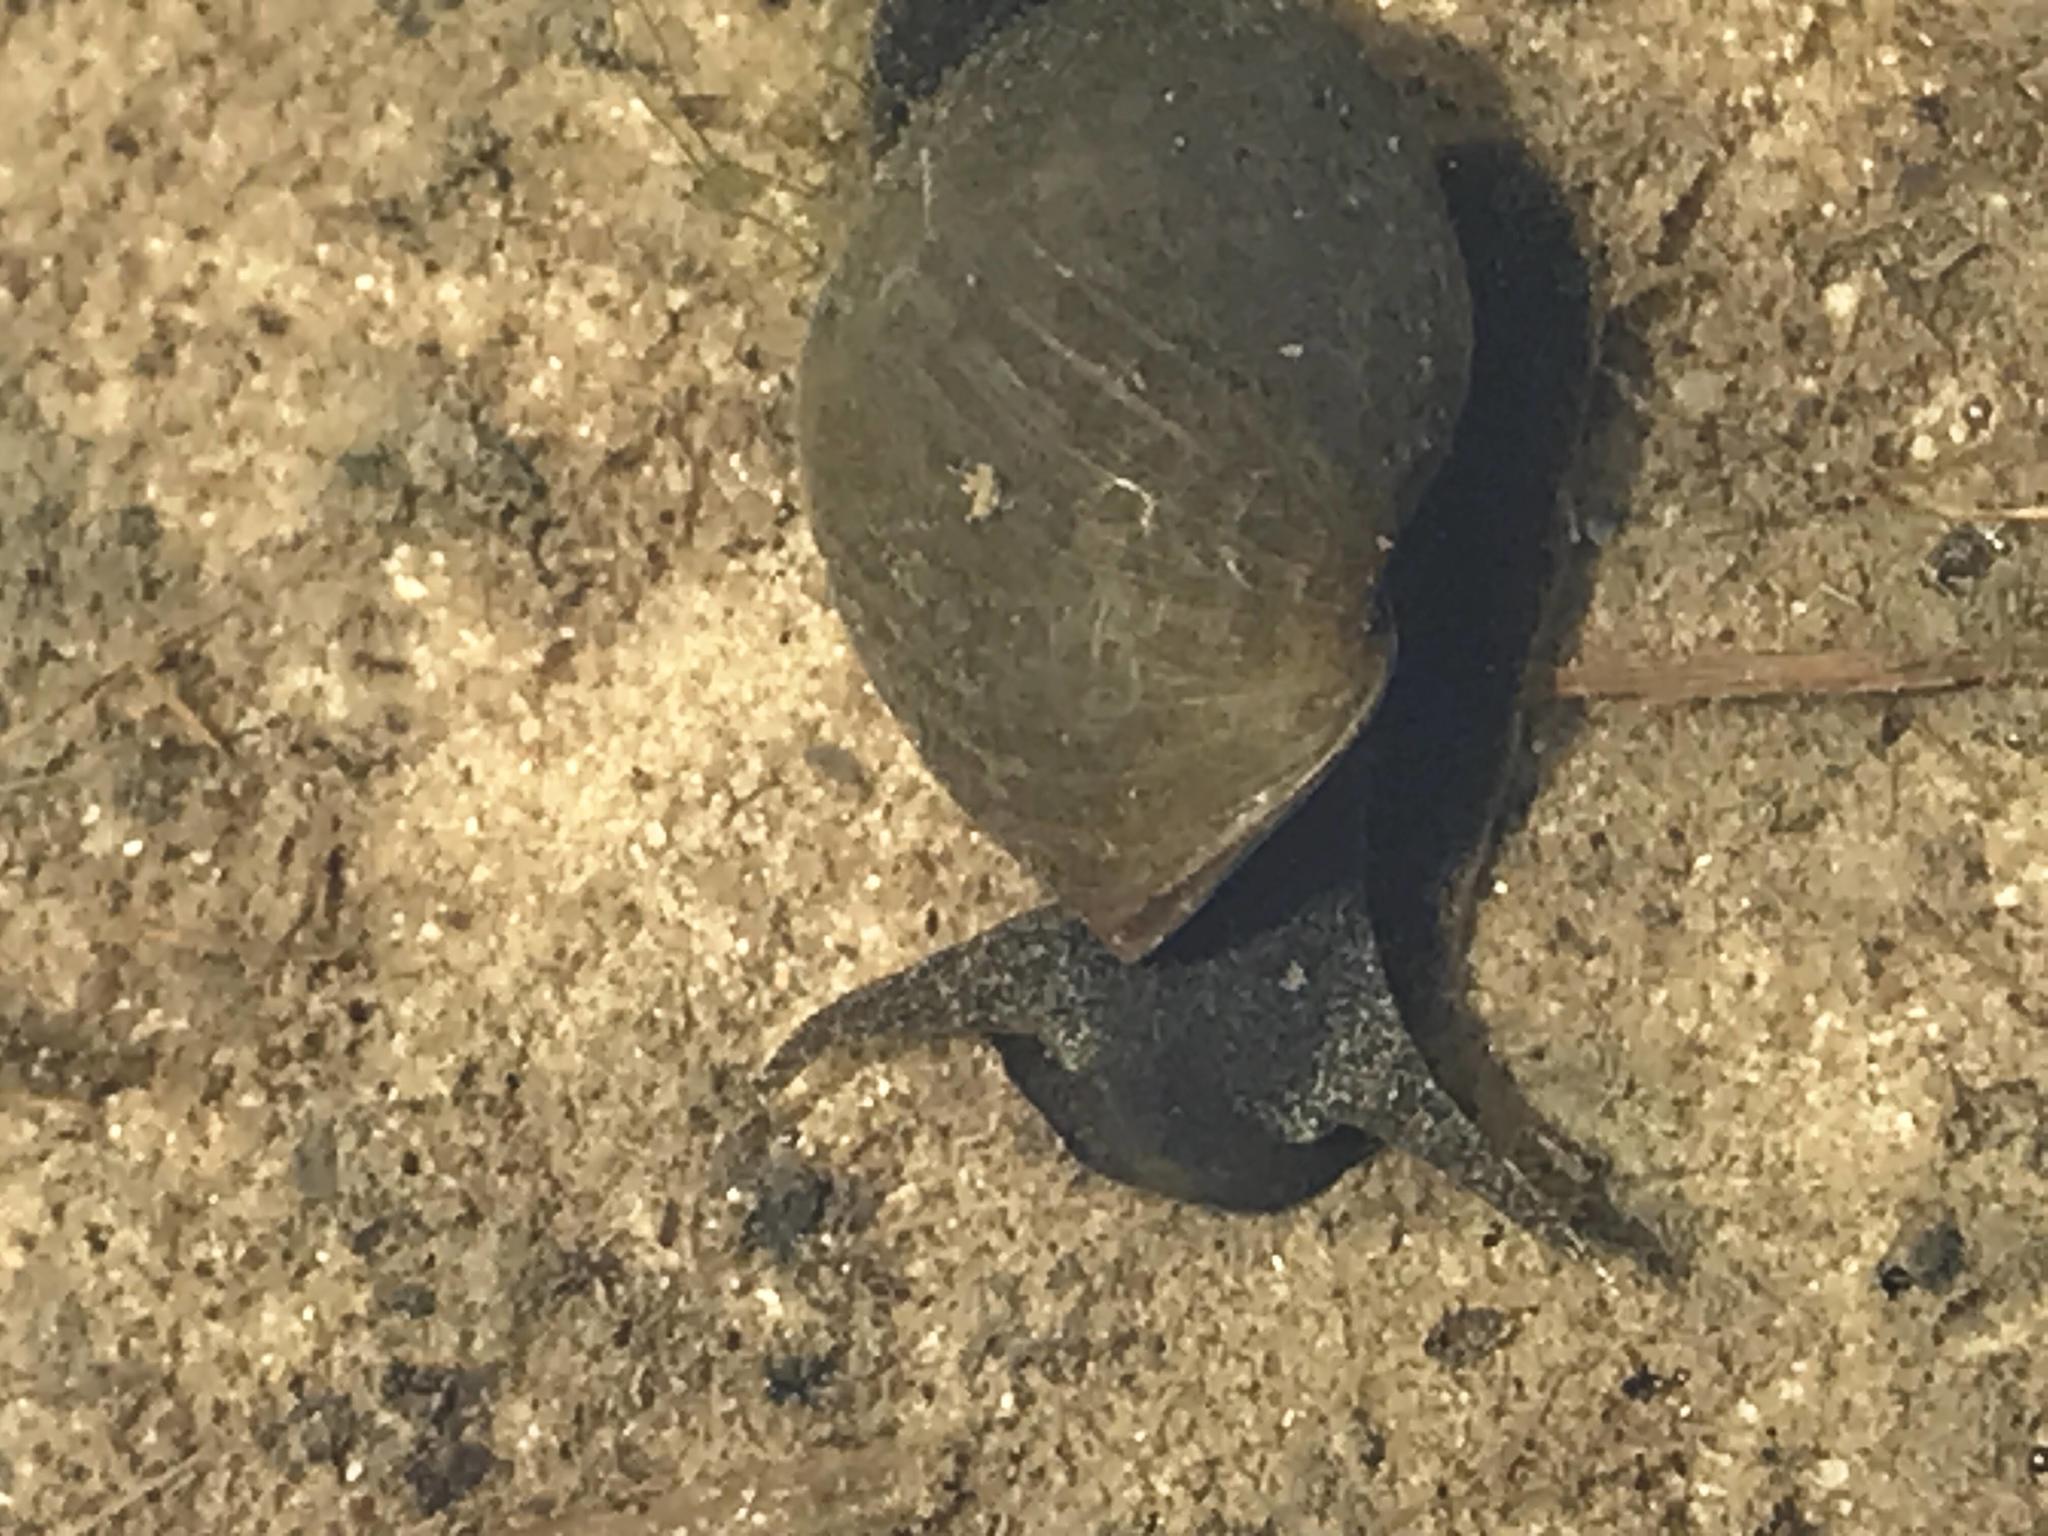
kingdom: Animalia
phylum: Mollusca
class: Gastropoda
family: Lymnaeidae
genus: Lymnaea
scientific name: Lymnaea stagnalis
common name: Great pond snail
